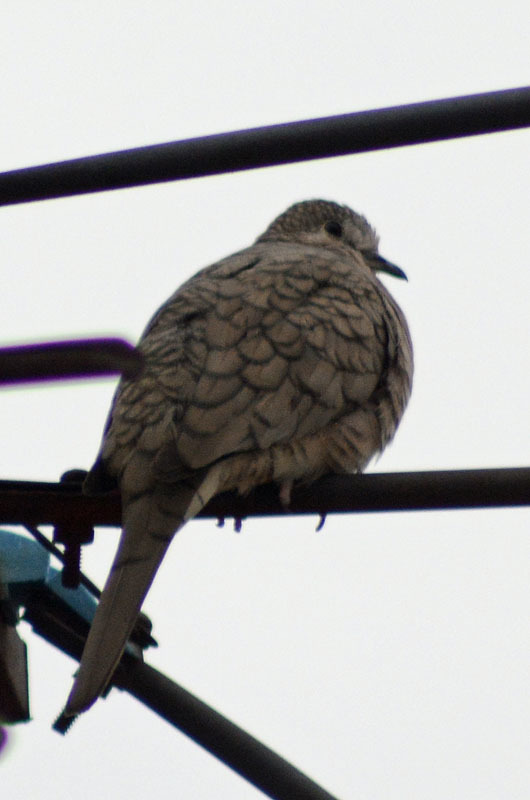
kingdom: Animalia
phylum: Chordata
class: Aves
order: Columbiformes
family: Columbidae
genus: Columbina
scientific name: Columbina inca
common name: Inca dove
